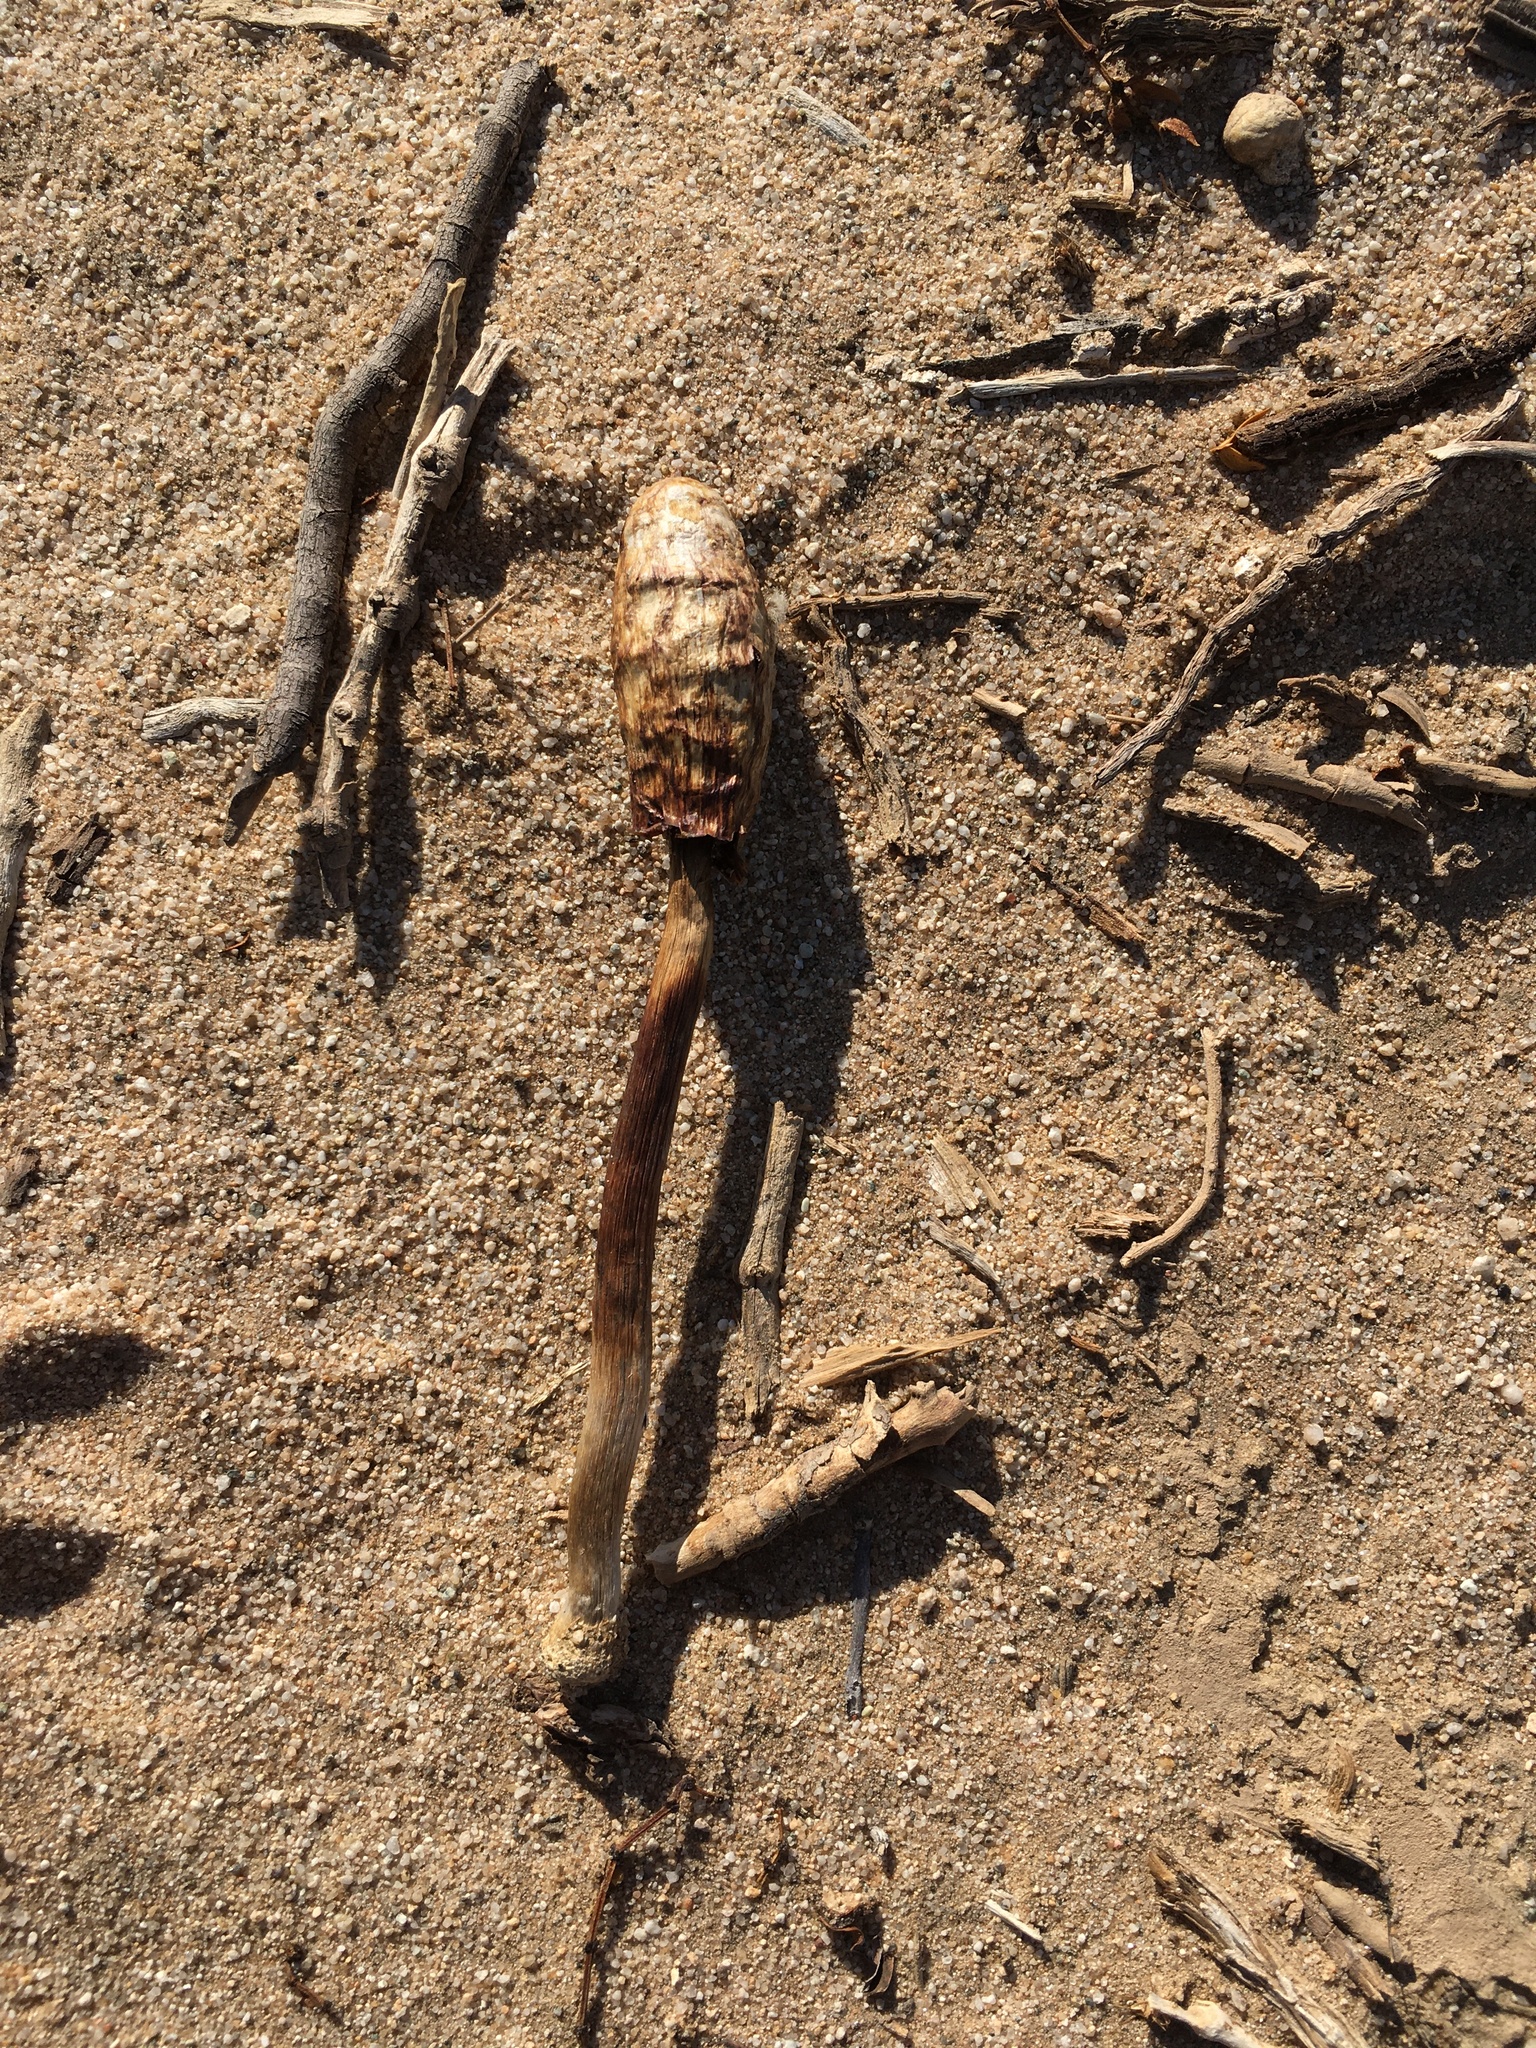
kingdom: Fungi
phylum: Basidiomycota
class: Agaricomycetes
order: Agaricales
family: Agaricaceae
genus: Podaxis
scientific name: Podaxis pistillaris
